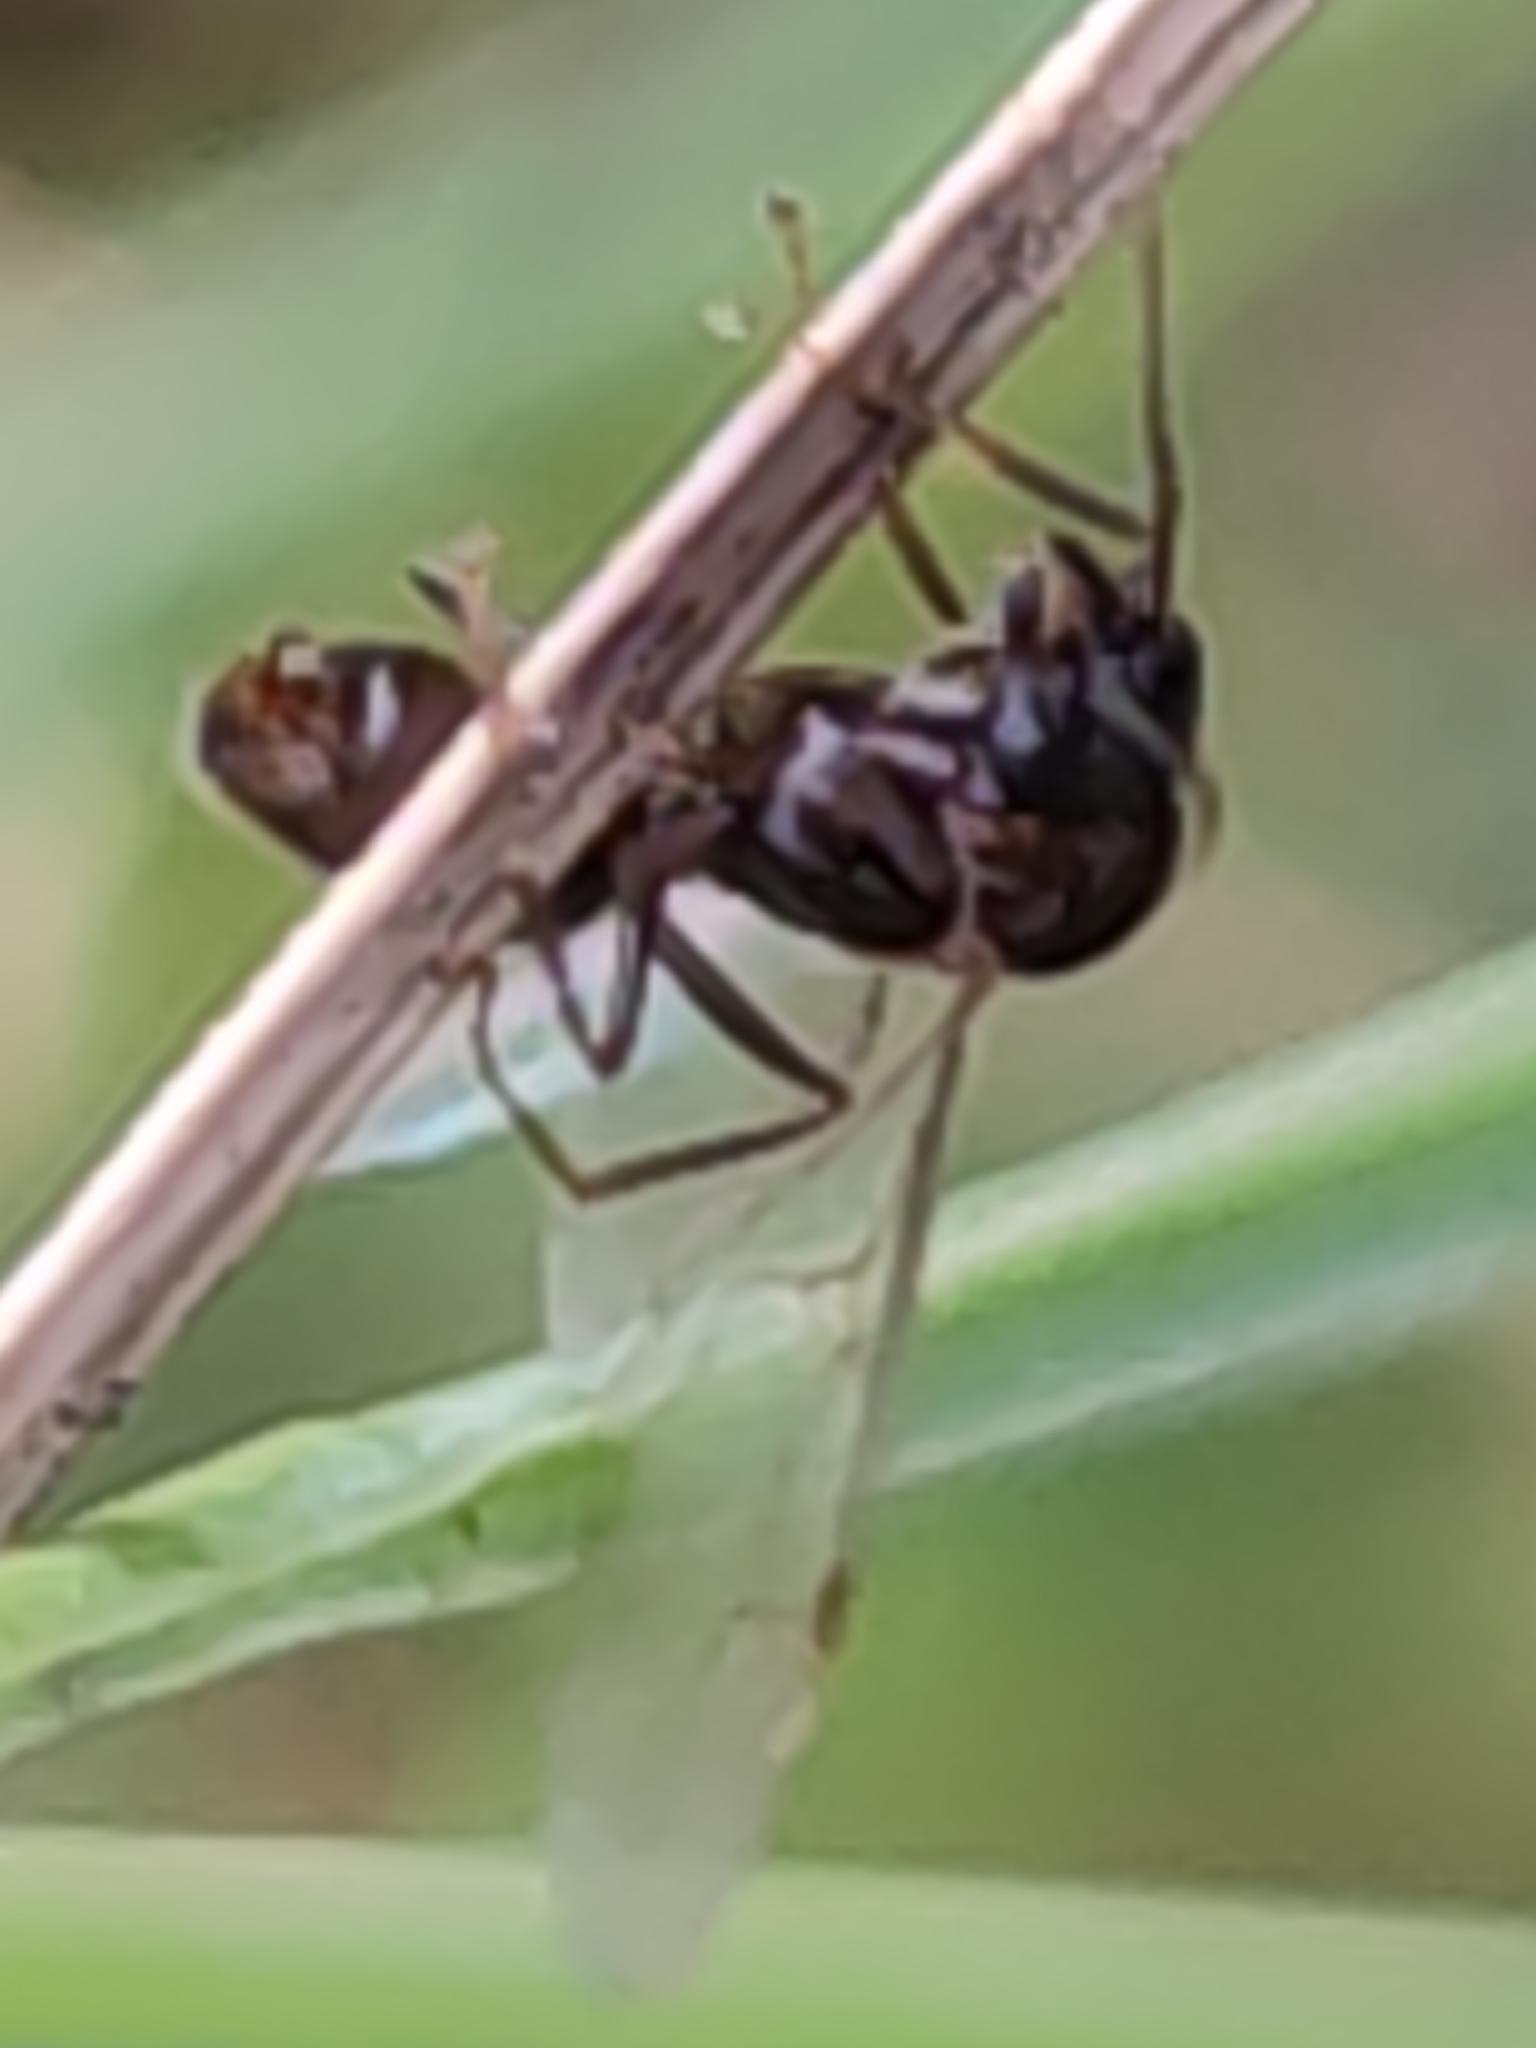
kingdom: Animalia
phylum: Arthropoda
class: Insecta
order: Hymenoptera
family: Formicidae
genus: Lasius
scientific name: Lasius fuliginosus
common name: Jet ant
